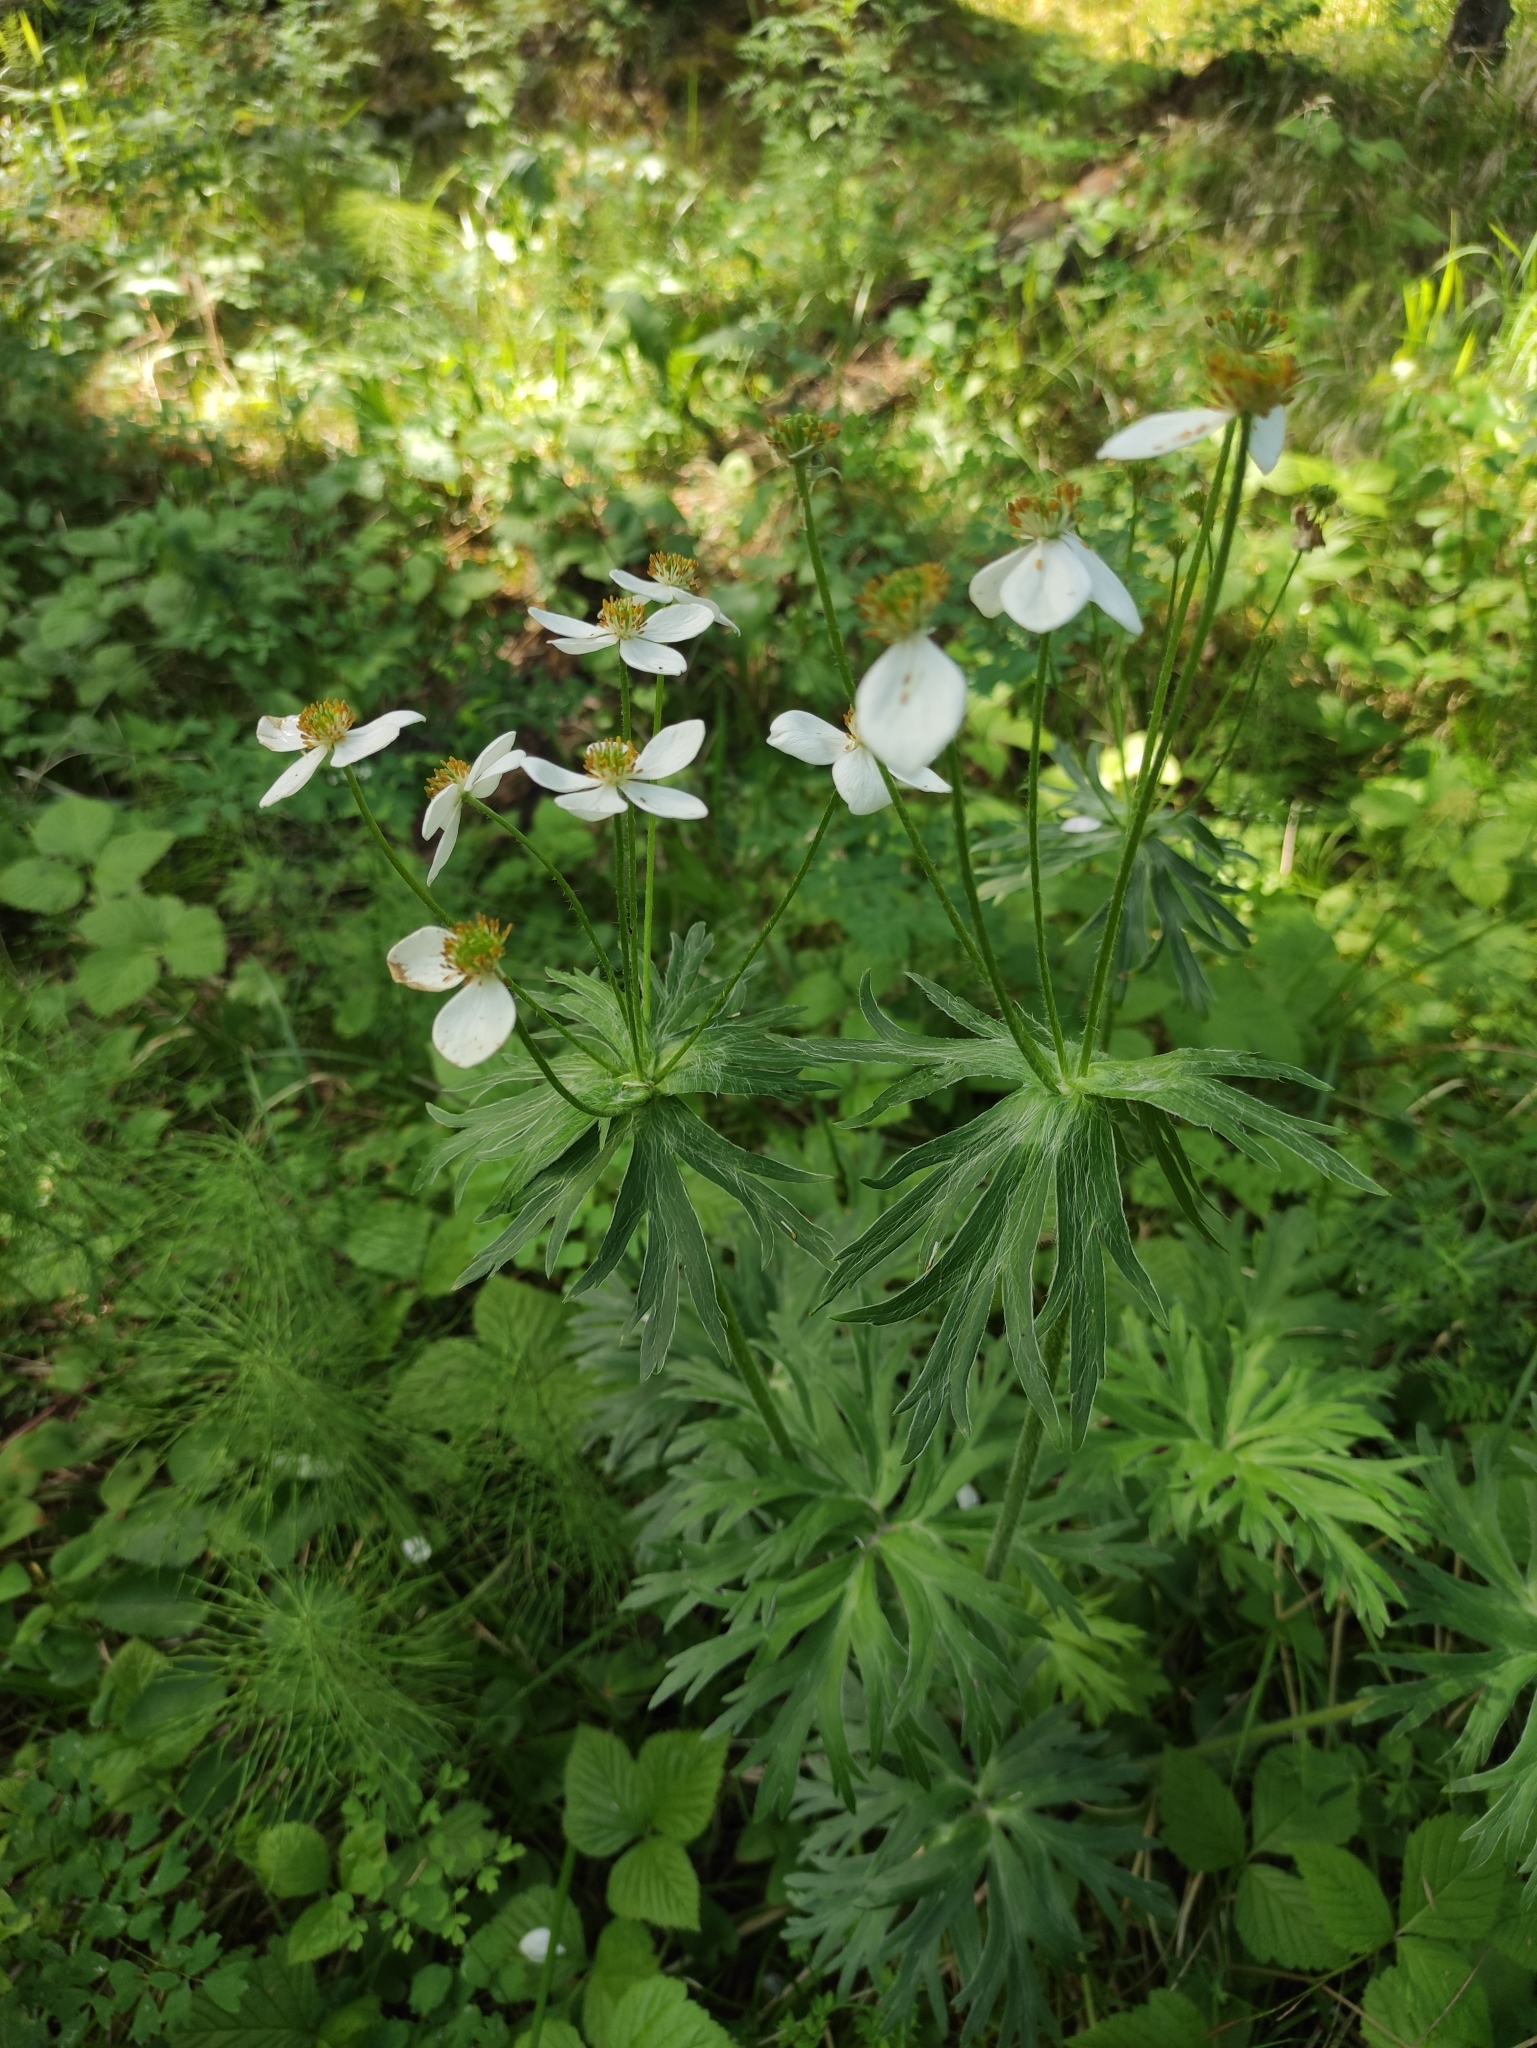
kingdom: Plantae
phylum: Tracheophyta
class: Magnoliopsida
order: Ranunculales
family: Ranunculaceae
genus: Anemonastrum
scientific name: Anemonastrum narcissiflorum
